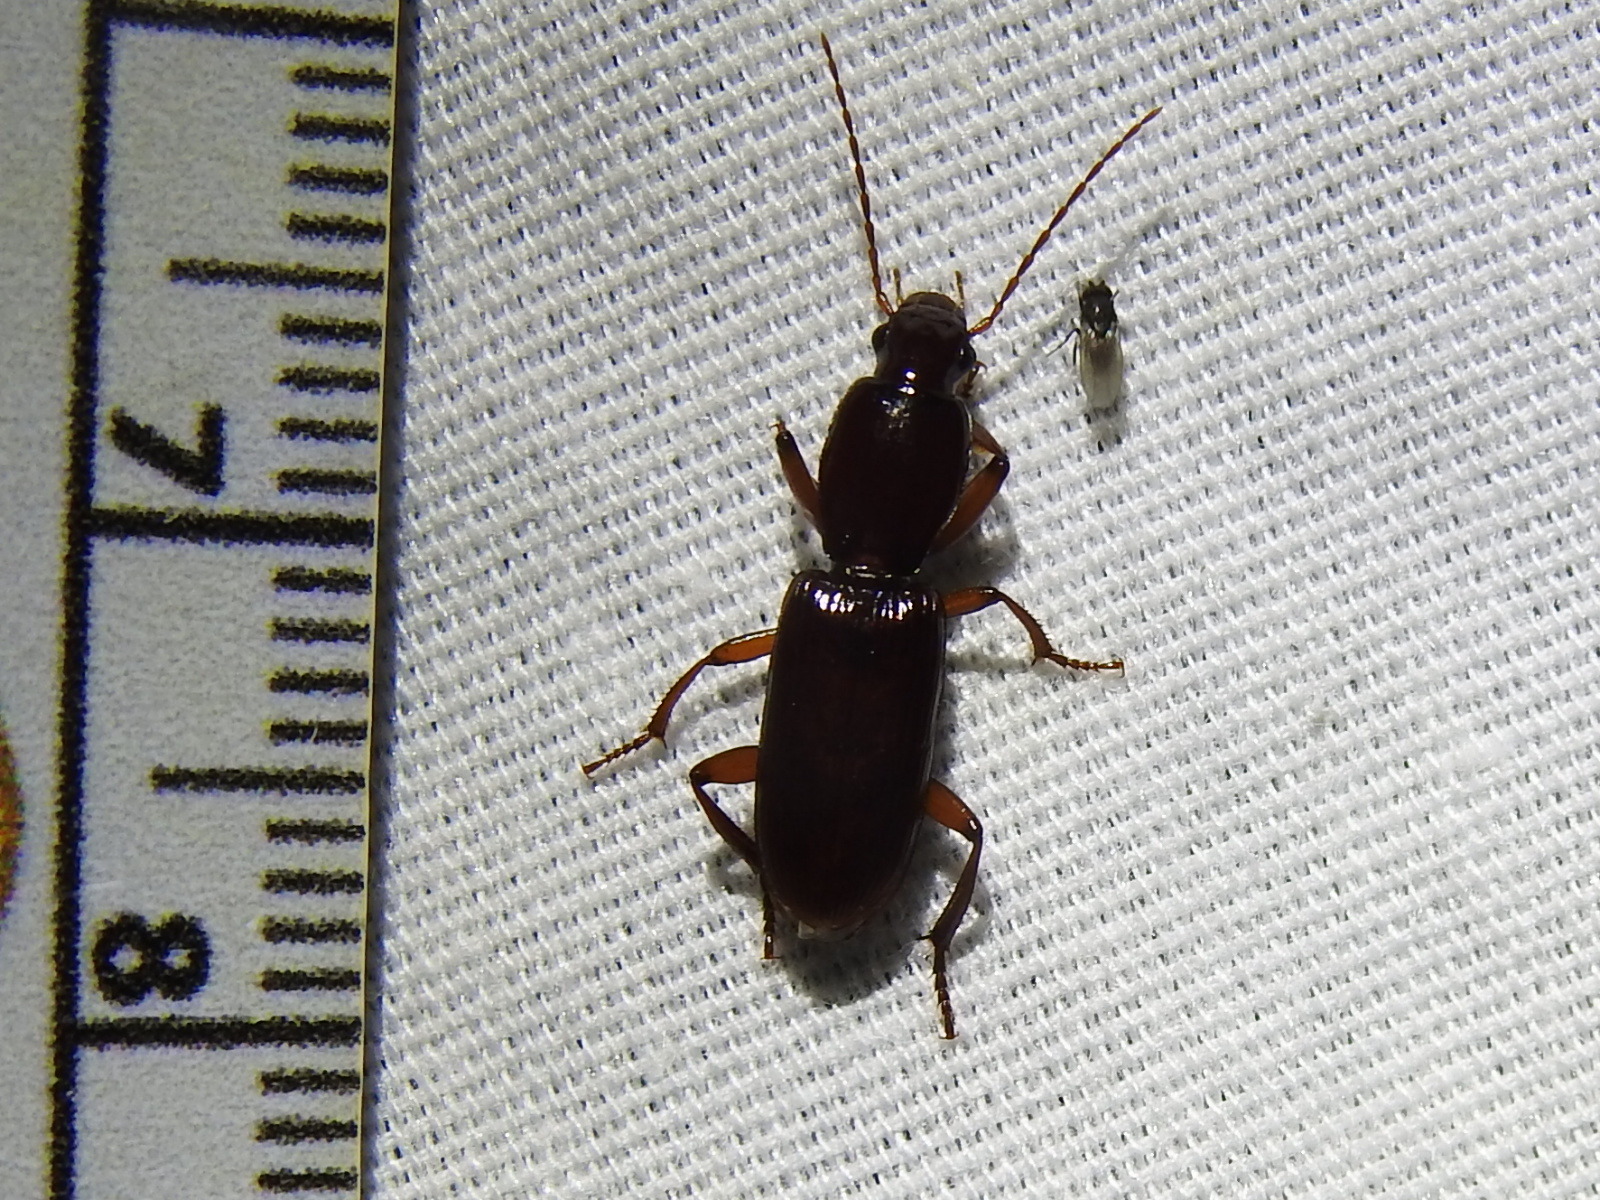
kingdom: Animalia
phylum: Arthropoda
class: Insecta
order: Coleoptera
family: Carabidae
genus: Stenomorphus
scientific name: Stenomorphus californicus
